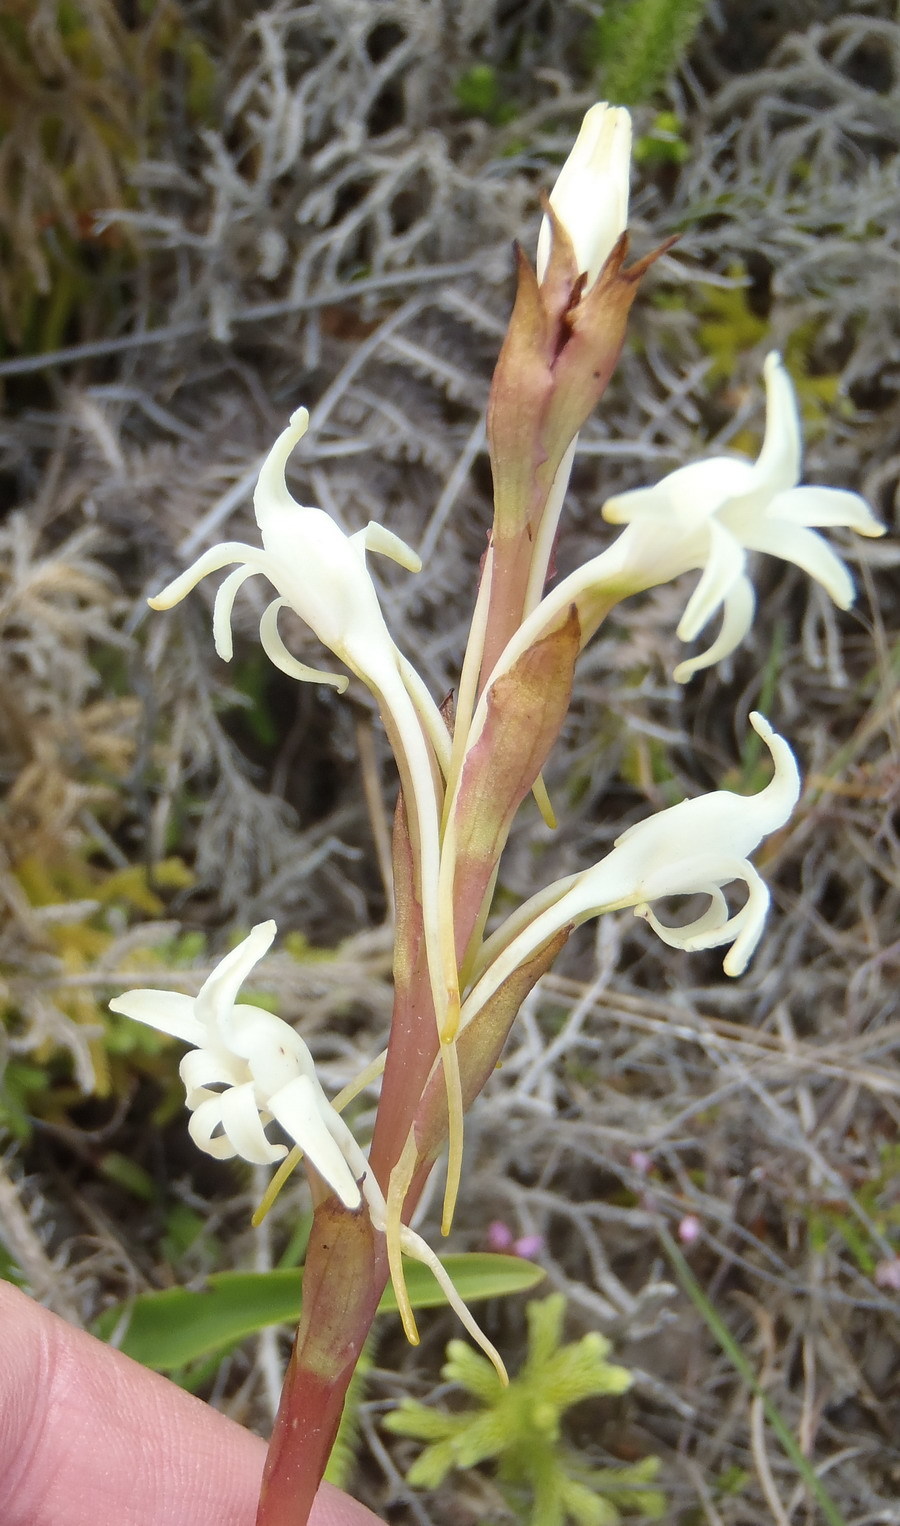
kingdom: Plantae
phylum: Tracheophyta
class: Liliopsida
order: Asparagales
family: Orchidaceae
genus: Satyrium
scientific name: Satyrium stenopetalum
